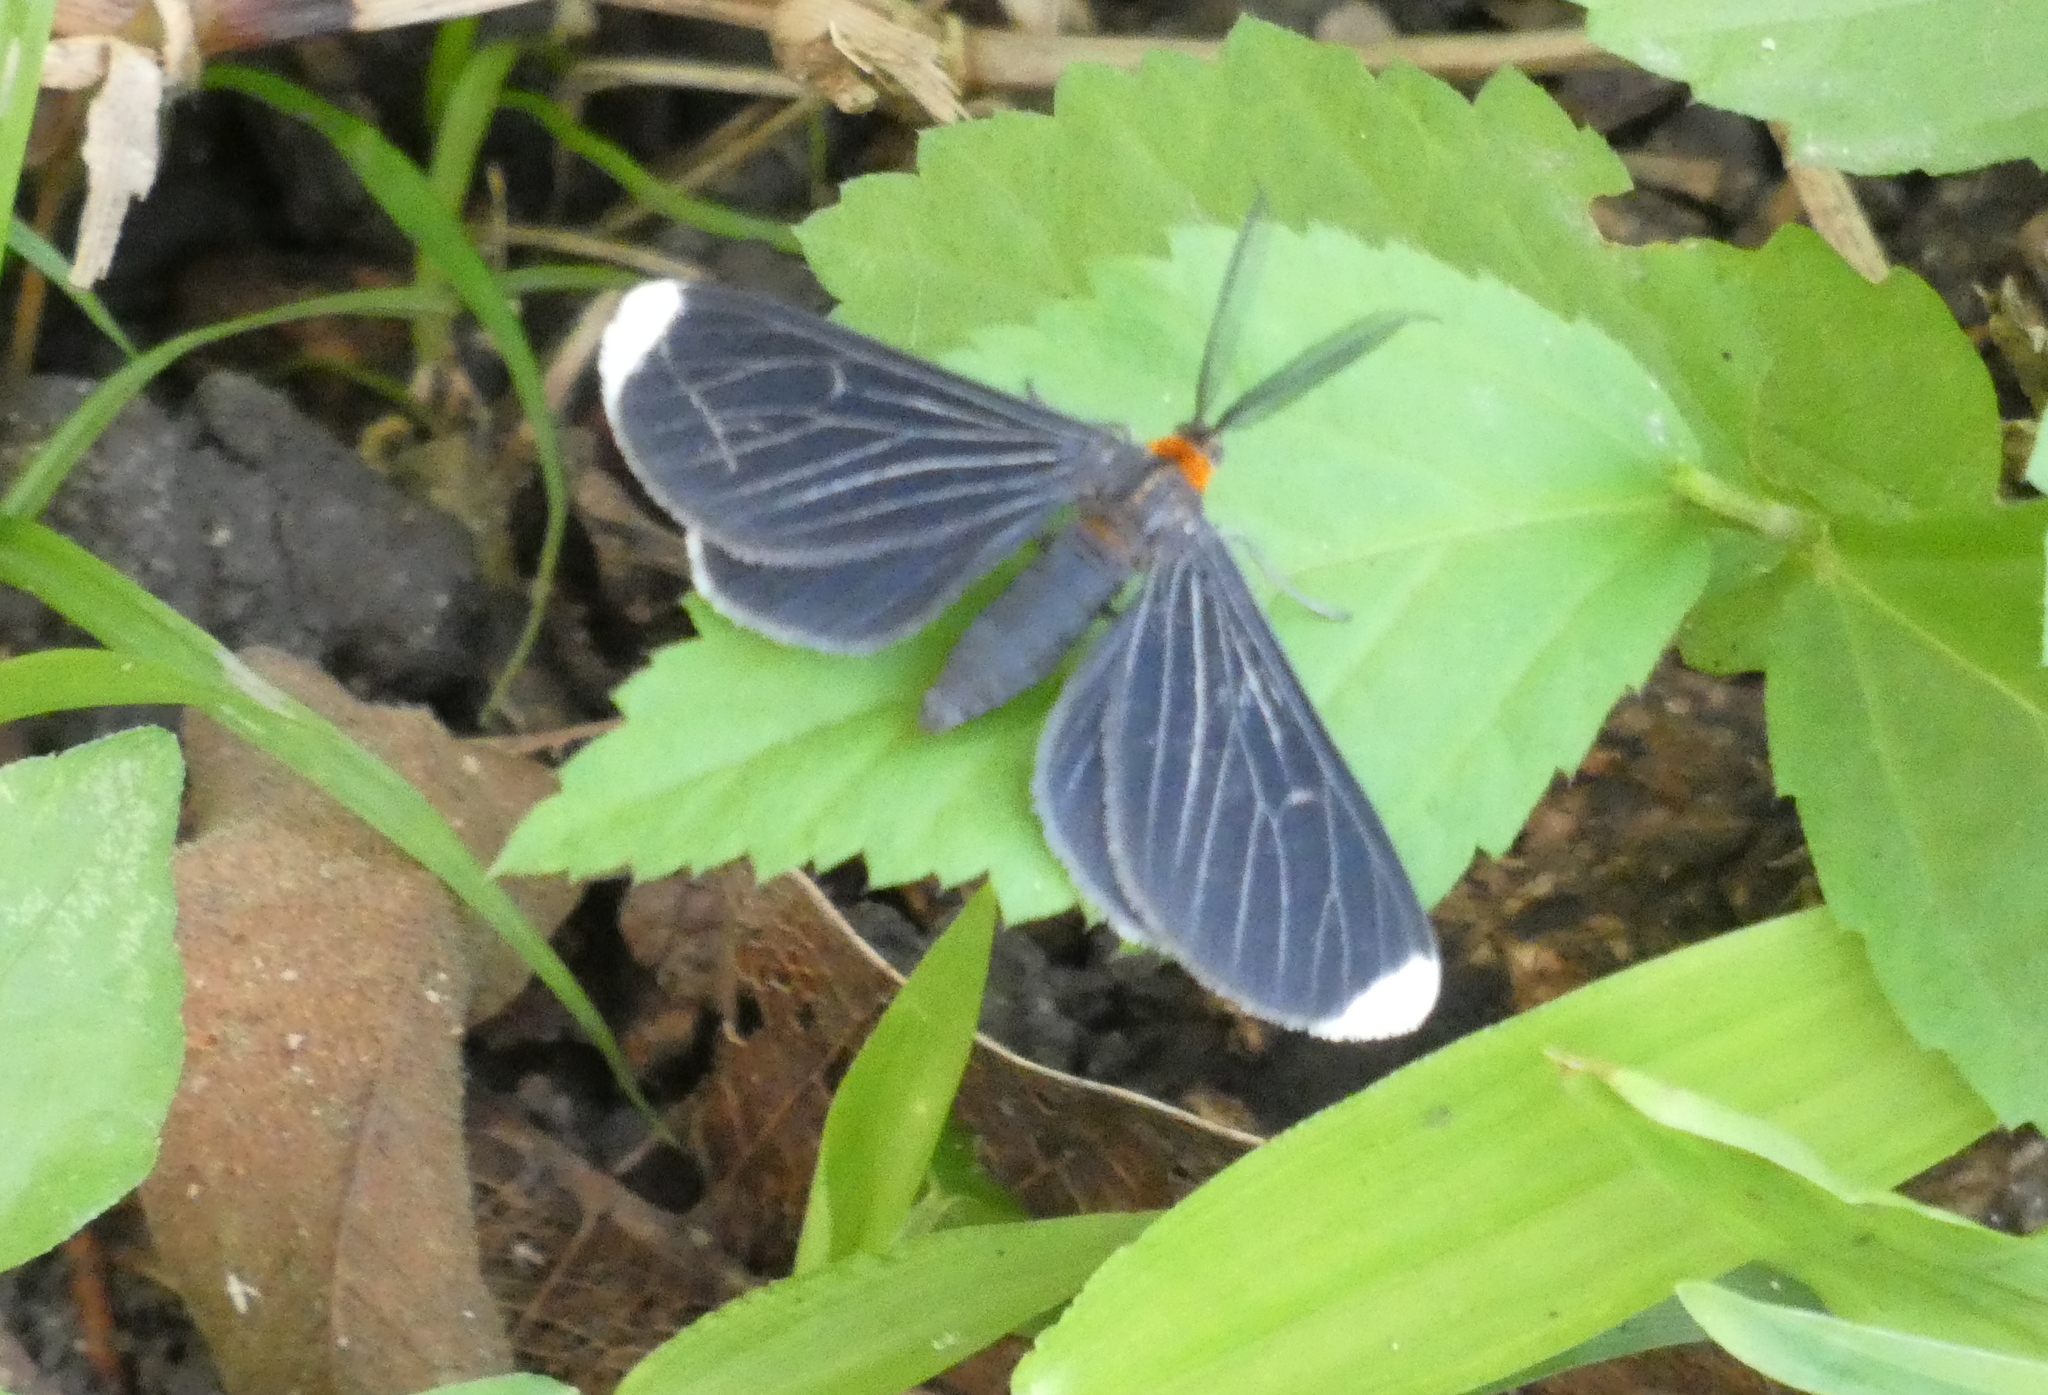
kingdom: Animalia
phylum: Arthropoda
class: Insecta
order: Lepidoptera
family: Geometridae
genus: Melanchroia
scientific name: Melanchroia chephise
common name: White-tipped black
